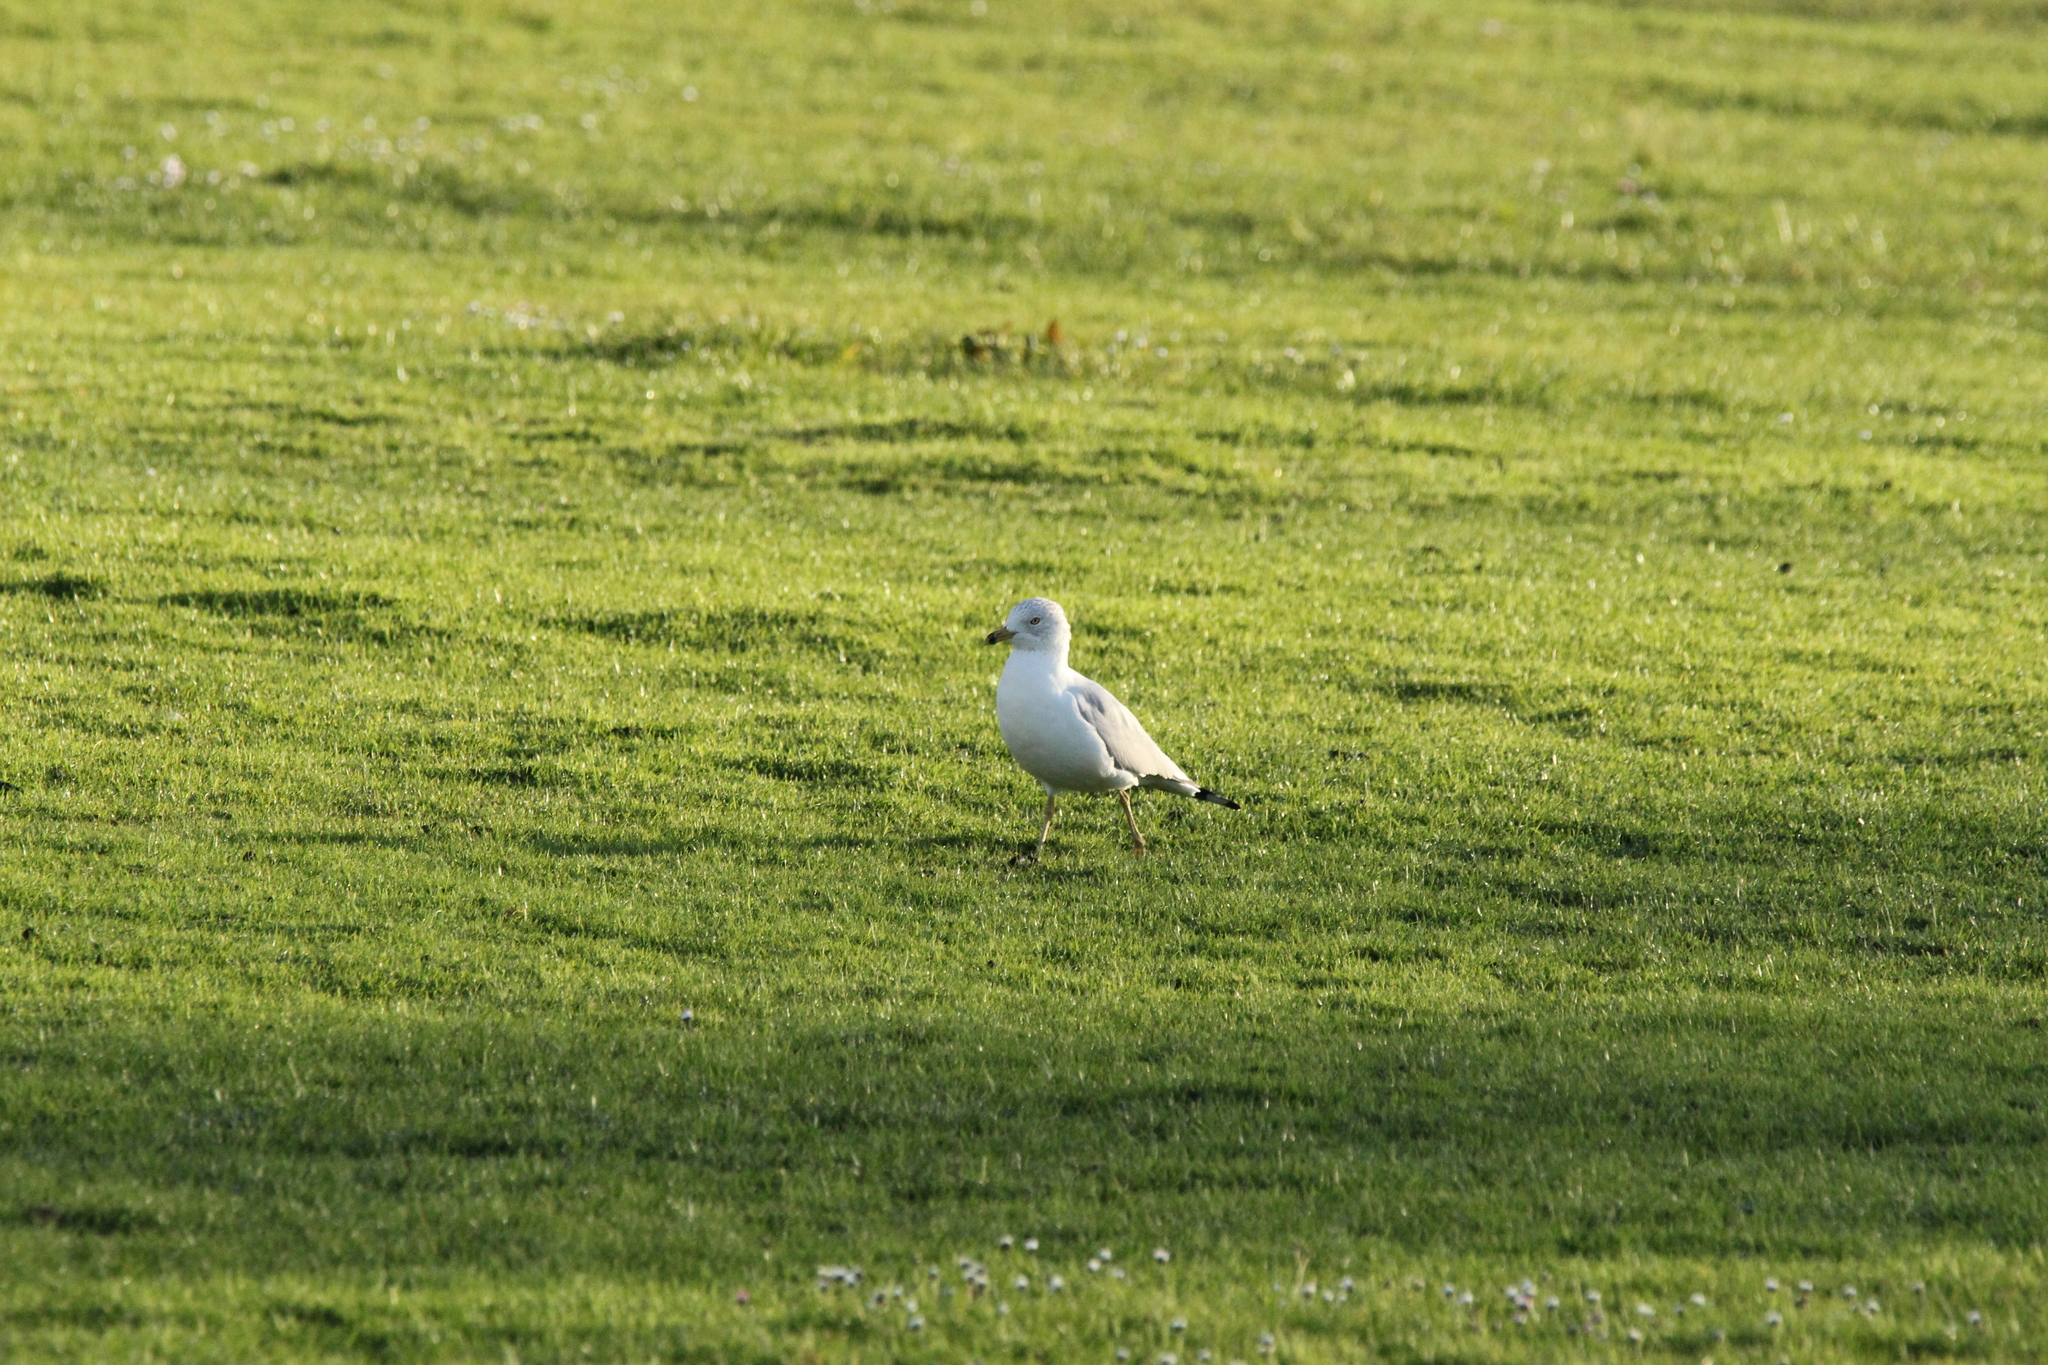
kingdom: Animalia
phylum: Chordata
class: Aves
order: Charadriiformes
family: Laridae
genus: Larus
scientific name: Larus delawarensis
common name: Ring-billed gull
